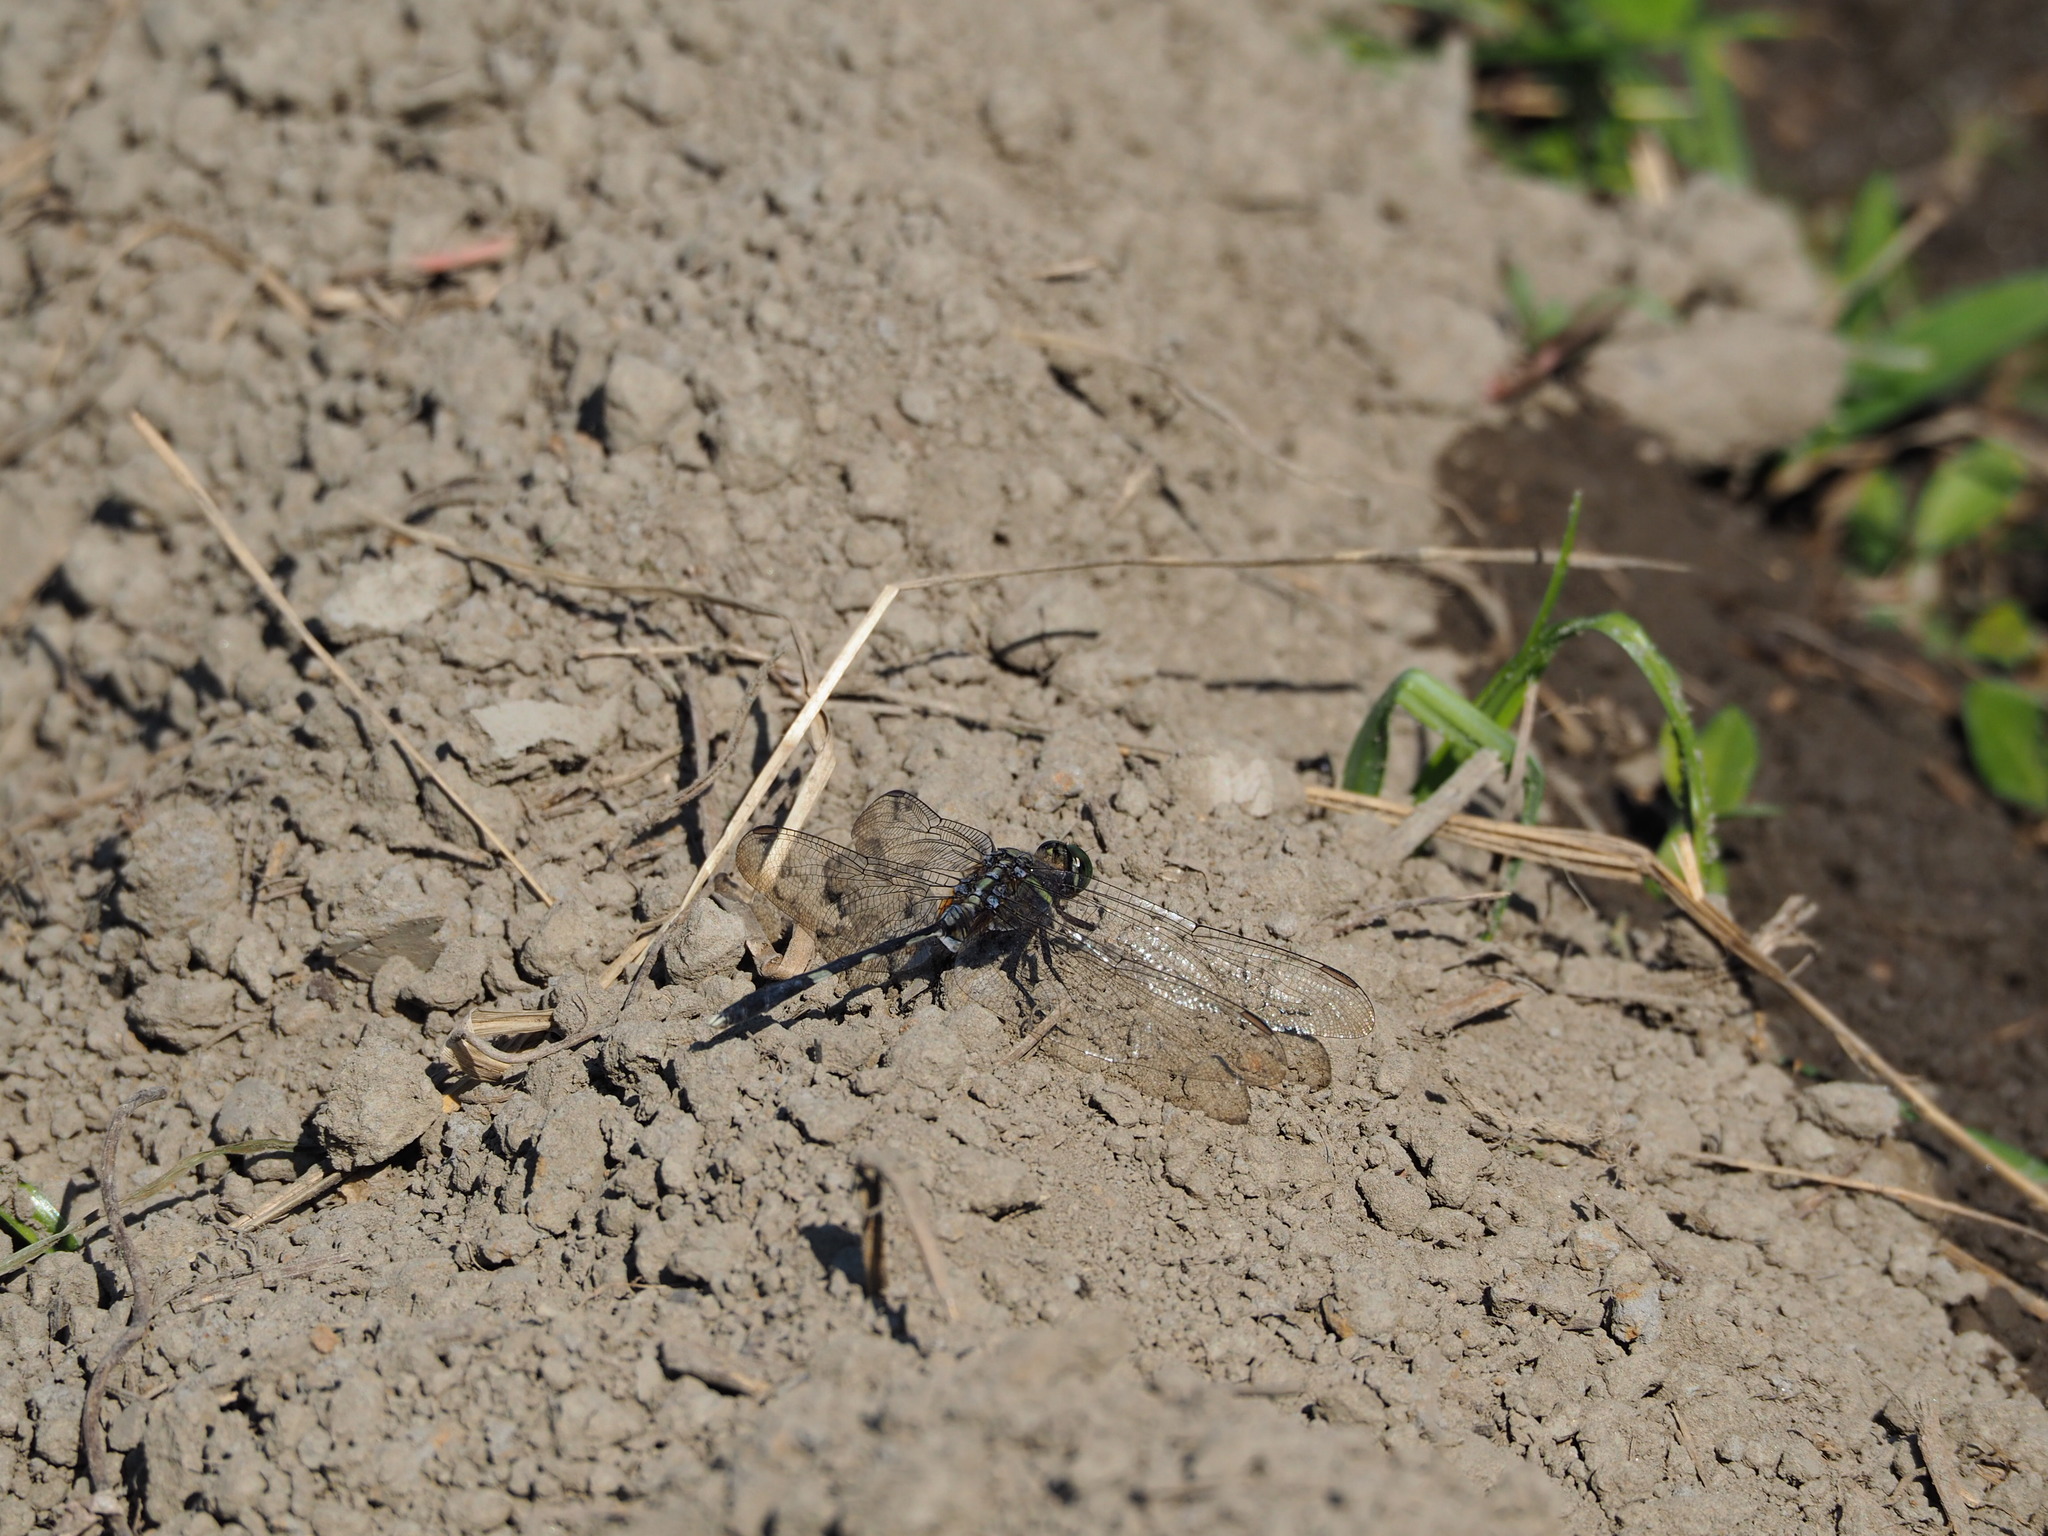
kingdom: Animalia
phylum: Arthropoda
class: Insecta
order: Odonata
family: Libellulidae
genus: Orthetrum
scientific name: Orthetrum sabina
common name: Slender skimmer
